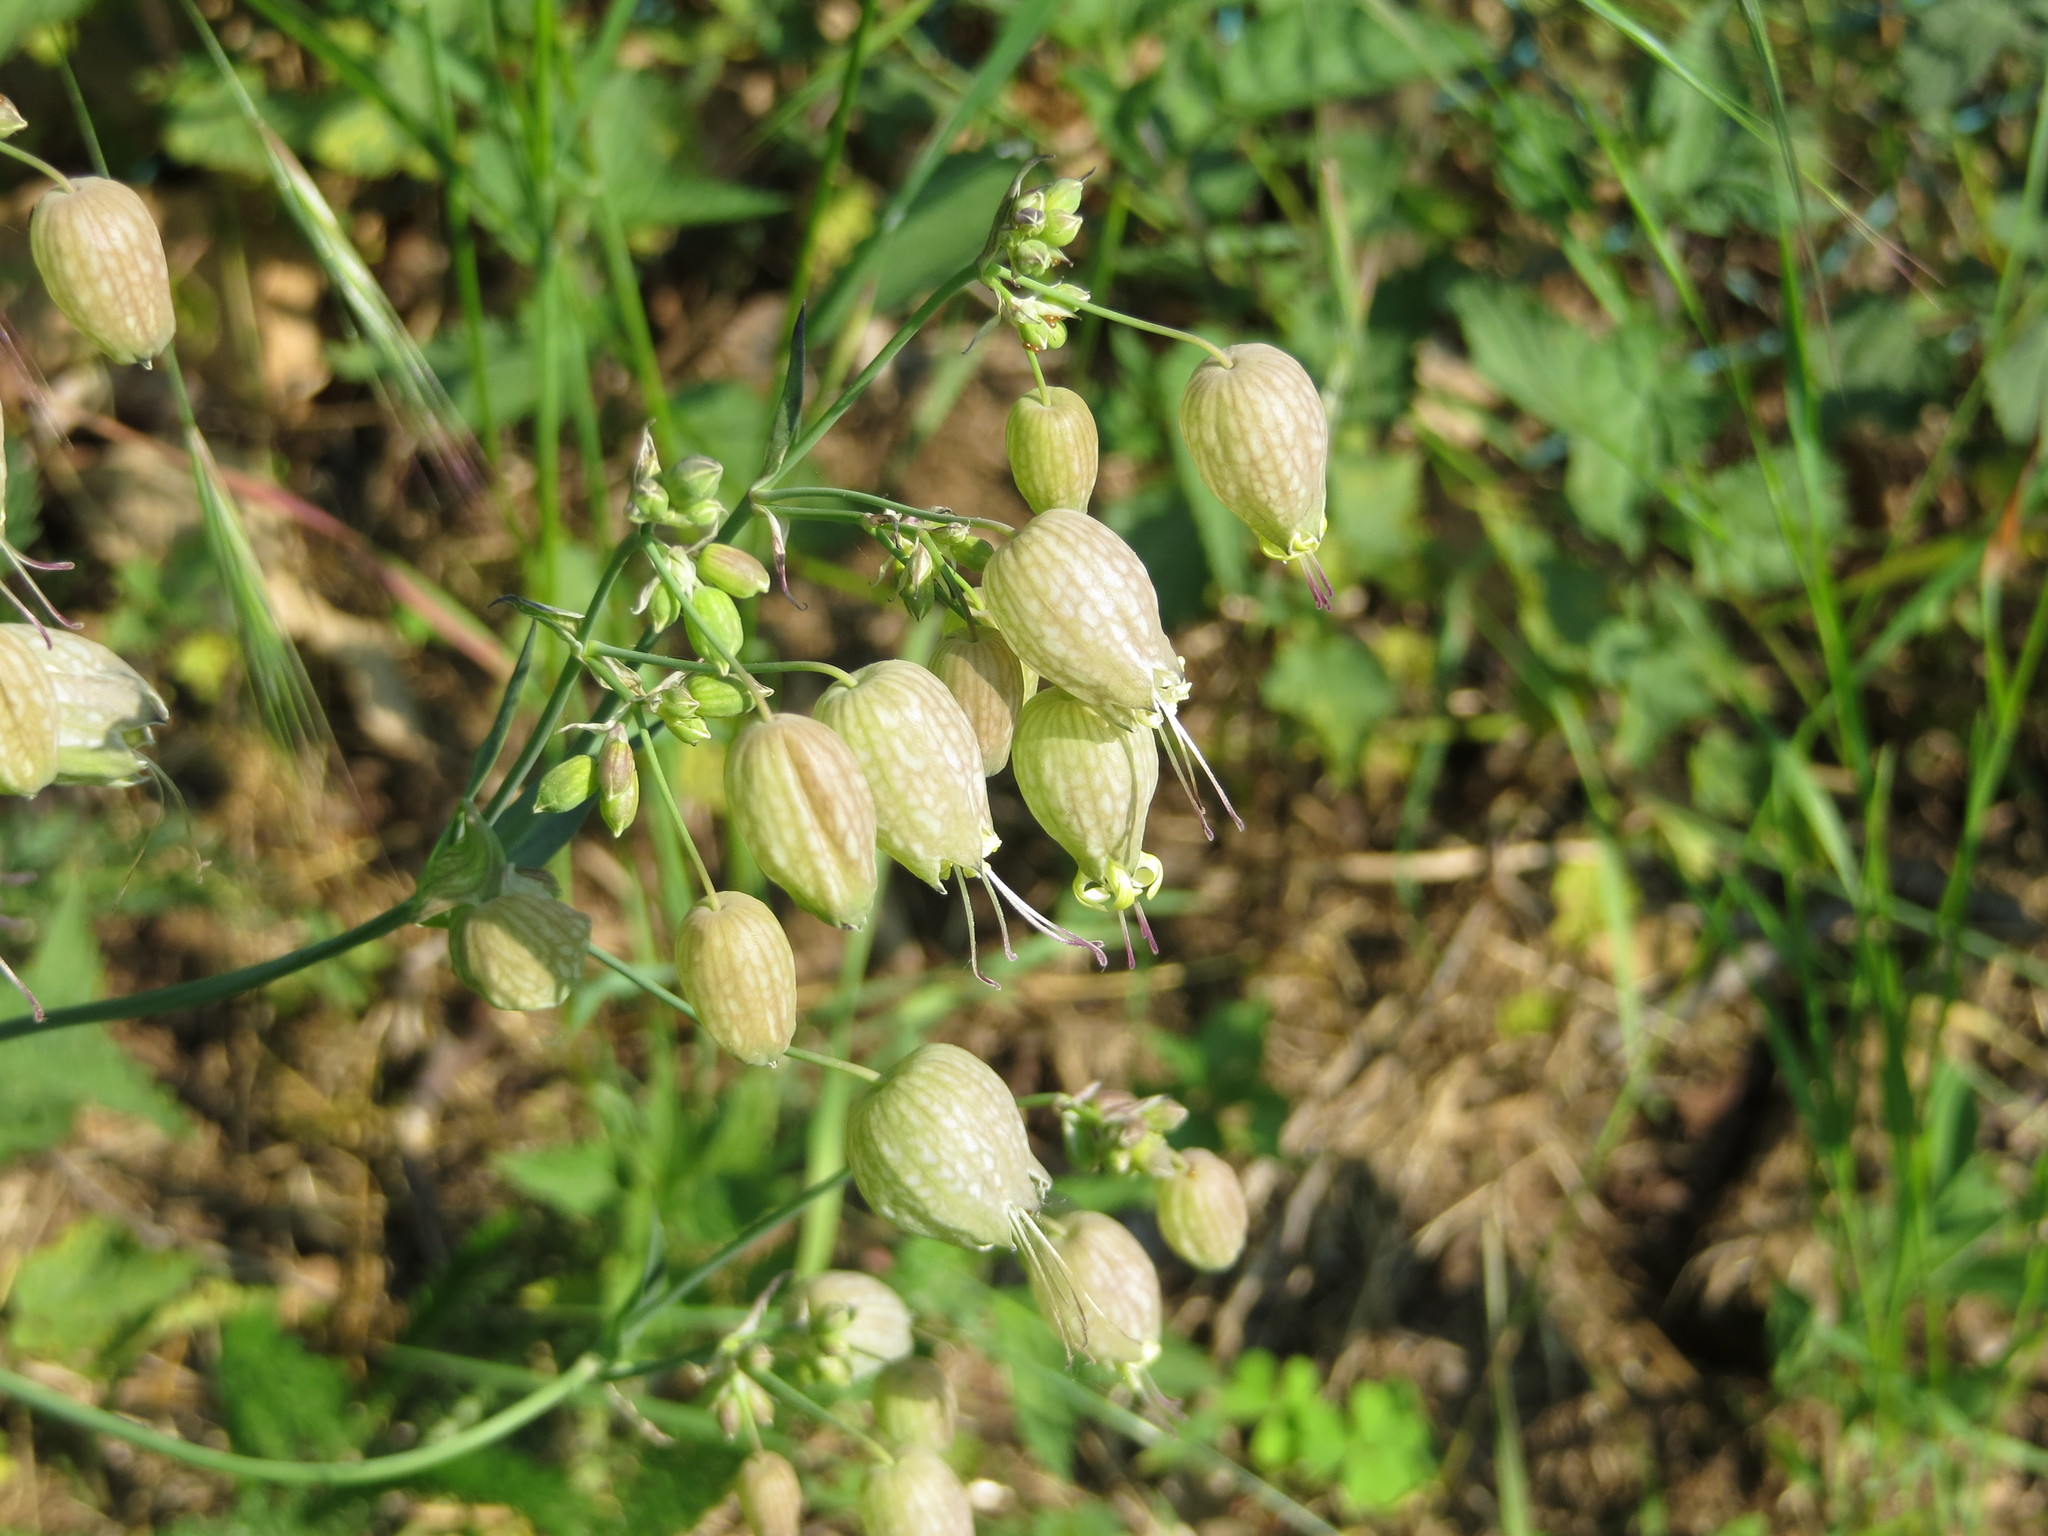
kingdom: Plantae
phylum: Tracheophyta
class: Magnoliopsida
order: Caryophyllales
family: Caryophyllaceae
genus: Silene
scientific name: Silene vulgaris
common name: Bladder campion
